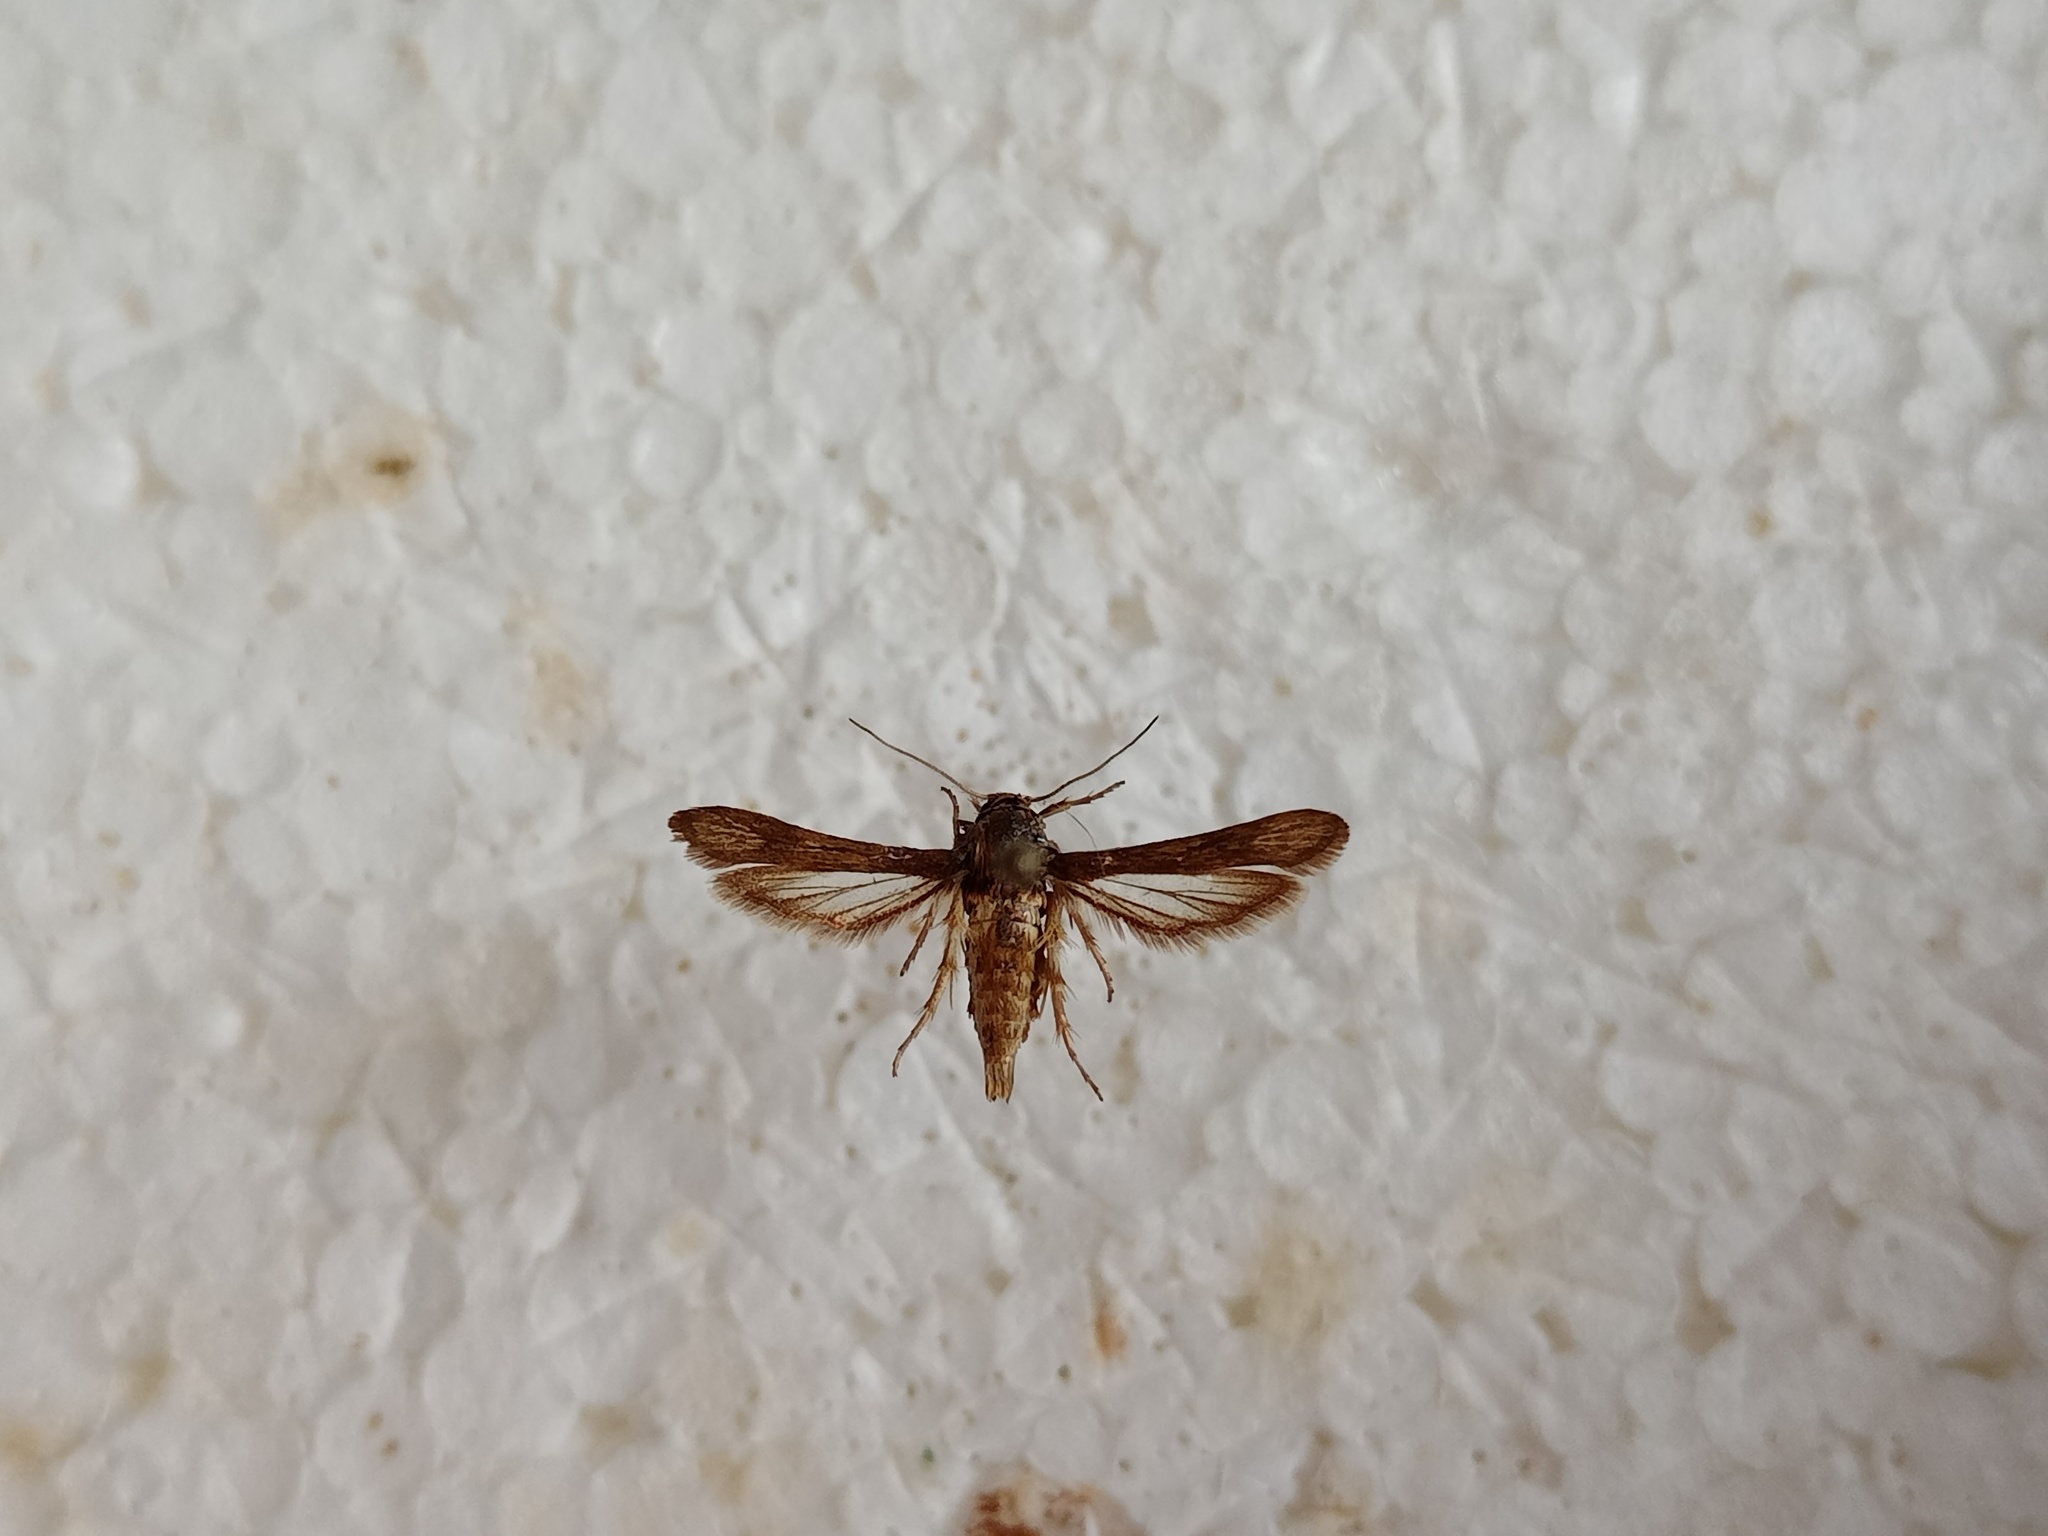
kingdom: Animalia
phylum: Arthropoda
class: Insecta
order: Lepidoptera
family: Sesiidae
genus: Microsphecia
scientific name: Microsphecia tineiformis
